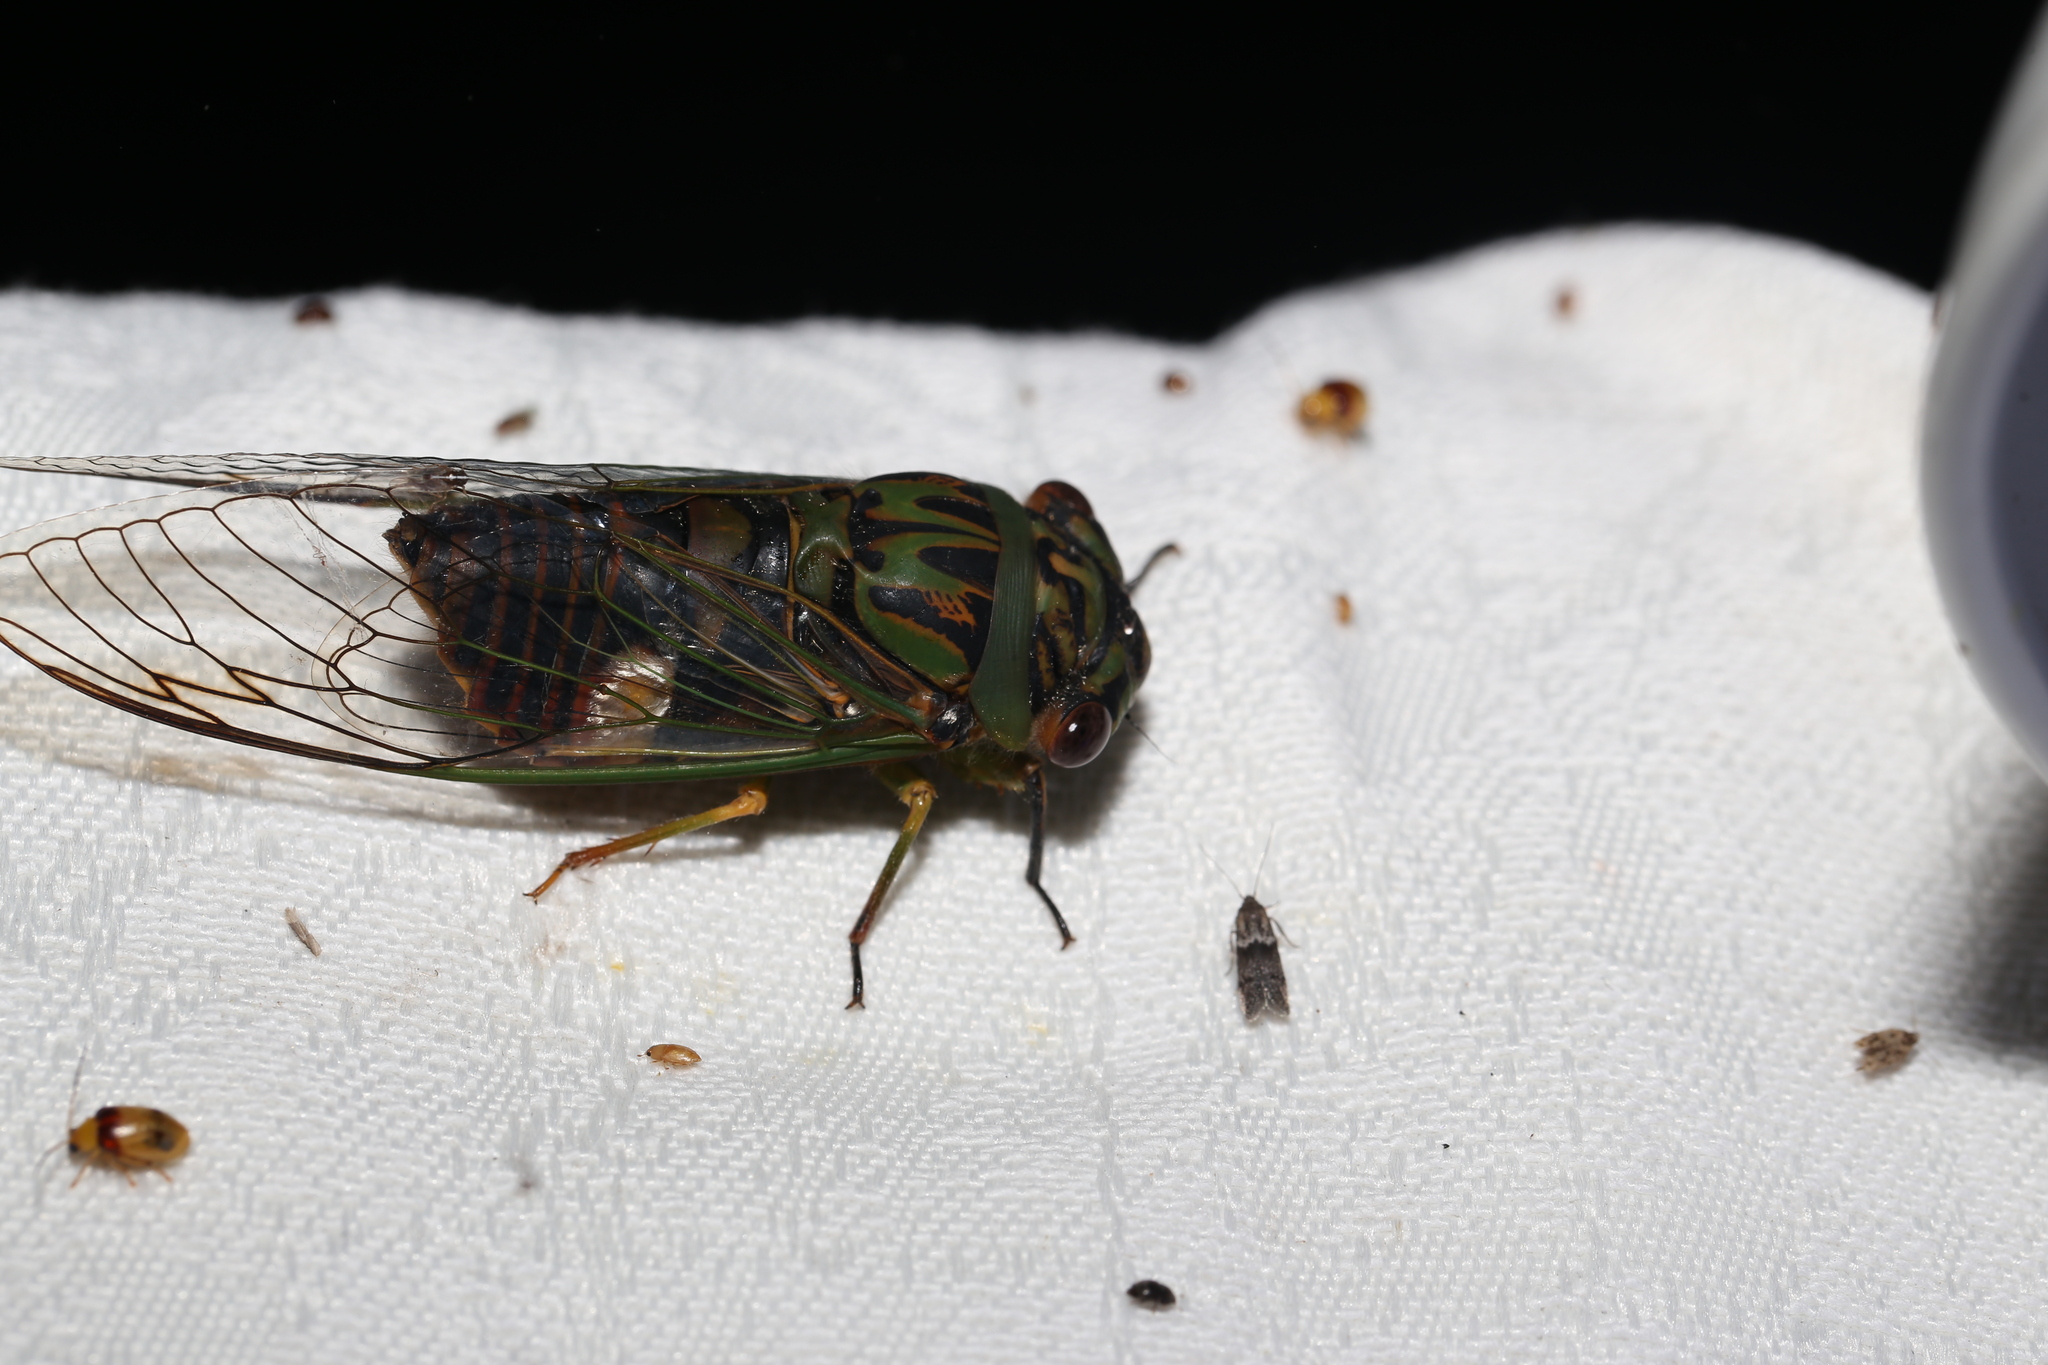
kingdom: Animalia
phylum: Arthropoda
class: Insecta
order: Hemiptera
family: Cicadidae
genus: Psaltoda
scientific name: Psaltoda plaga
